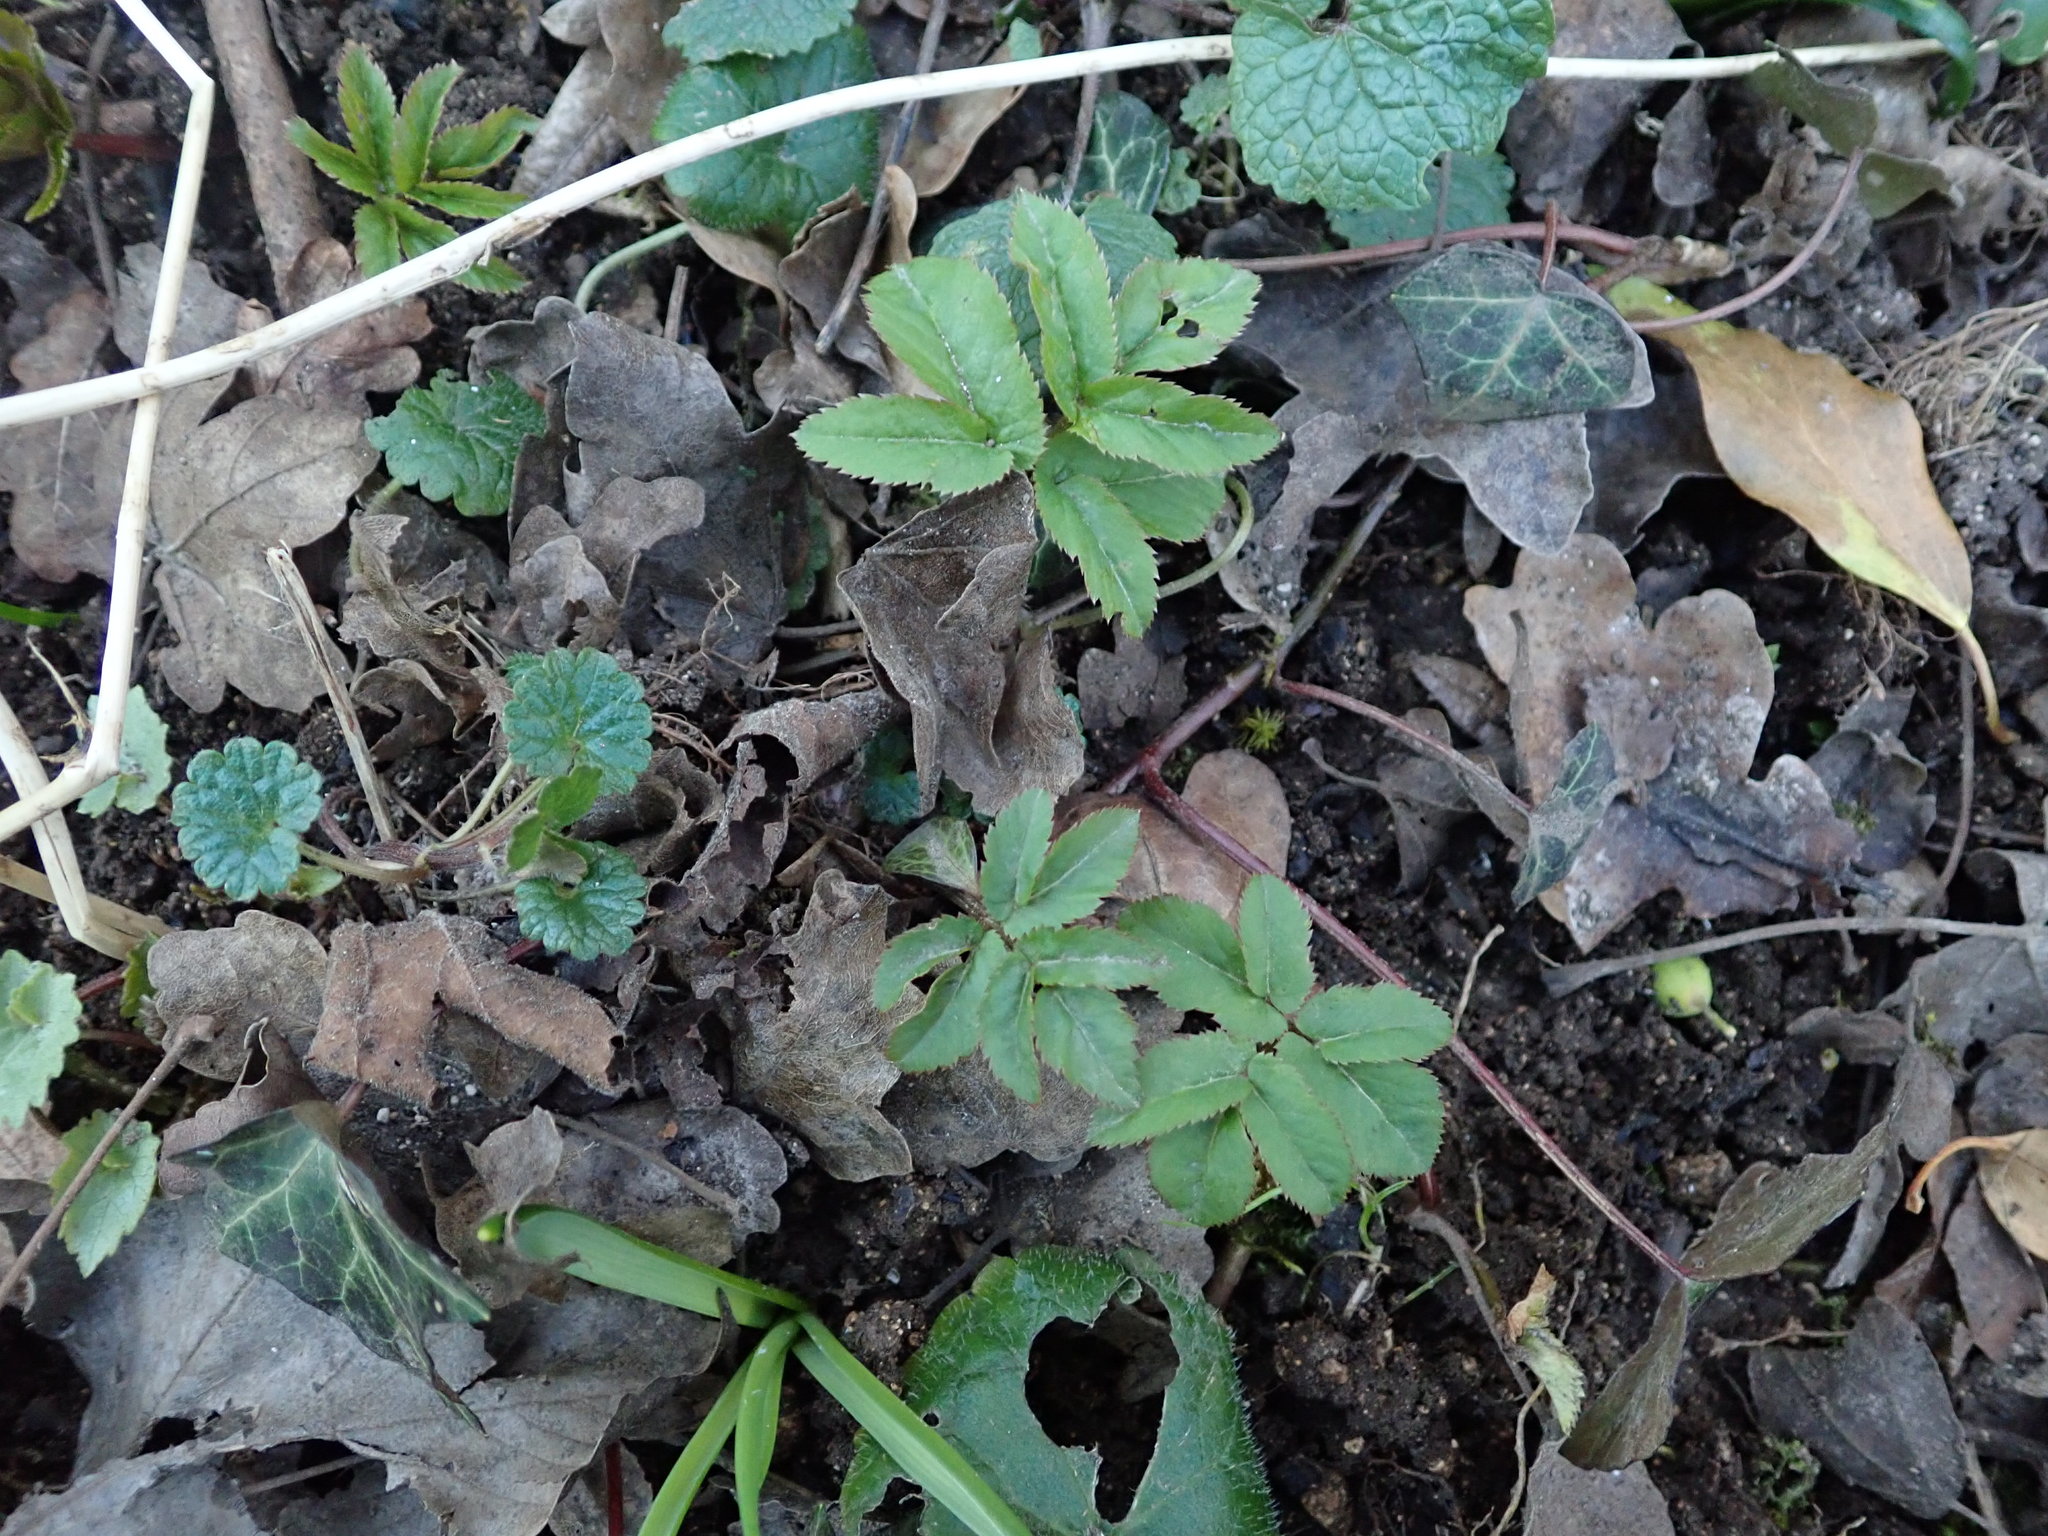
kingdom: Plantae
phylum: Tracheophyta
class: Magnoliopsida
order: Apiales
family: Apiaceae
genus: Aegopodium
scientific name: Aegopodium podagraria
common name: Ground-elder
